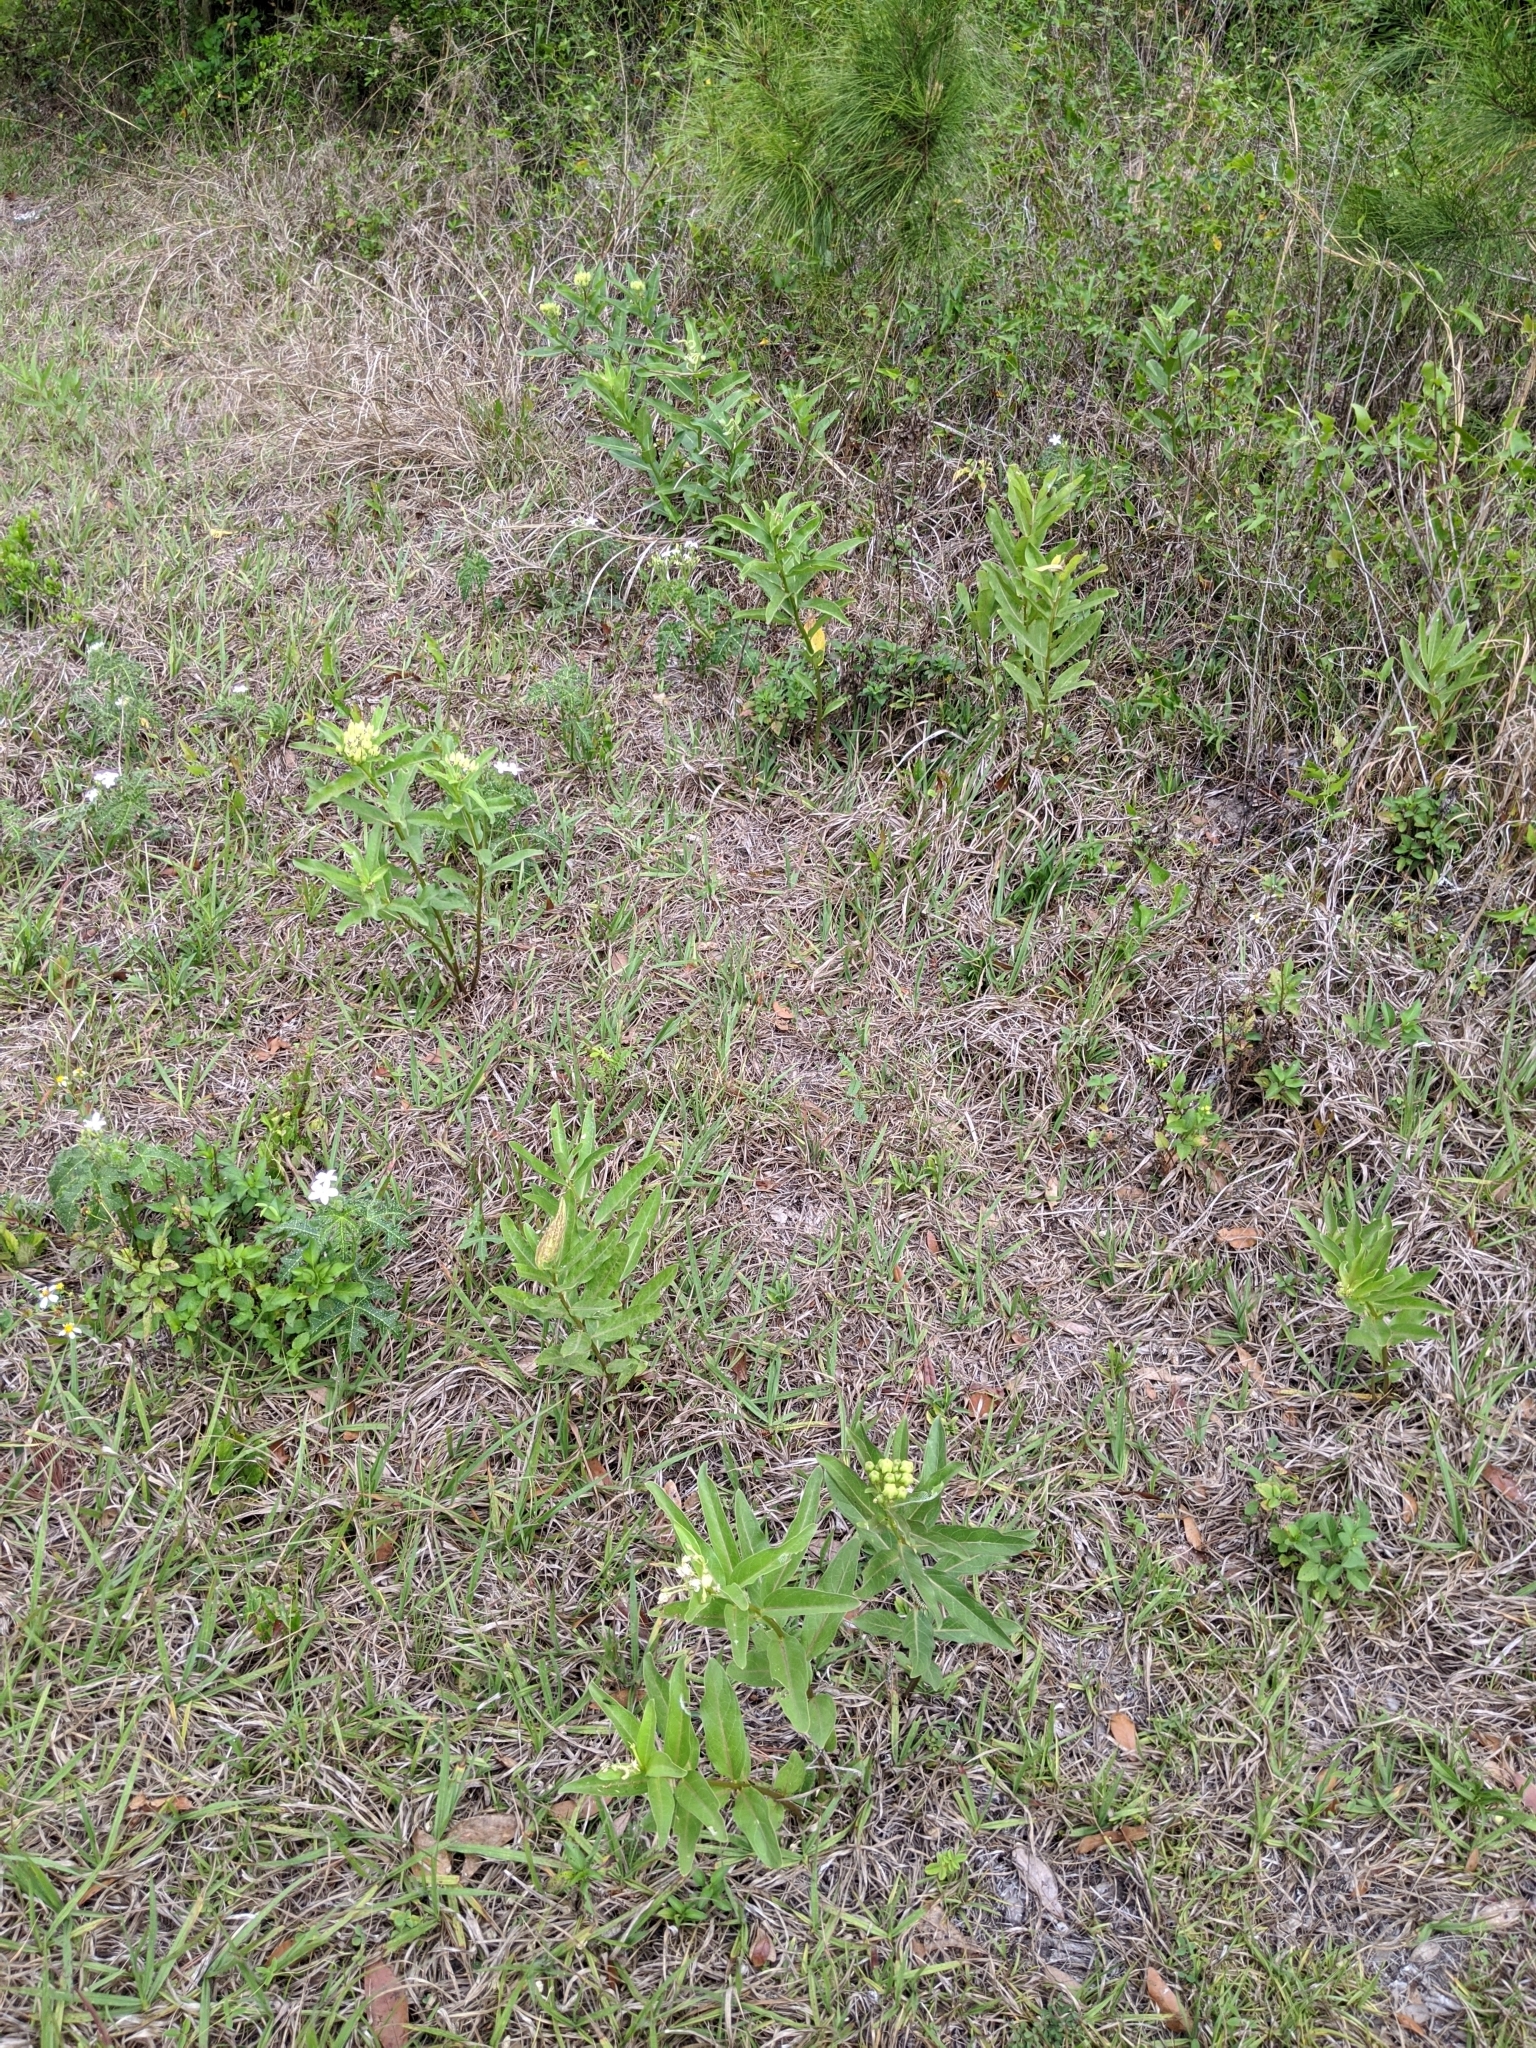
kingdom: Plantae
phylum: Tracheophyta
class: Magnoliopsida
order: Gentianales
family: Apocynaceae
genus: Asclepias
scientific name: Asclepias viridis
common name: Antelope-horns
